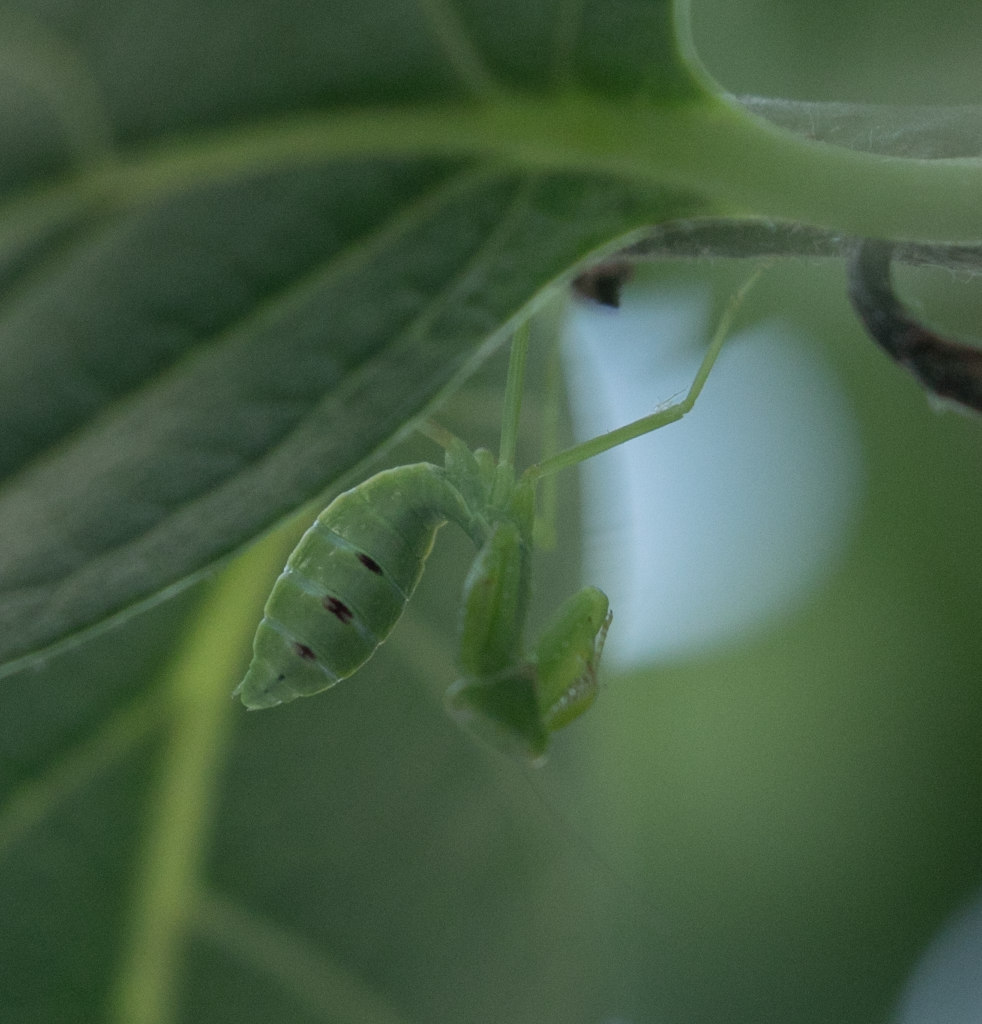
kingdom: Animalia
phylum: Arthropoda
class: Insecta
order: Mantodea
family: Mantidae
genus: Hierodula
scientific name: Hierodula transcaucasica
